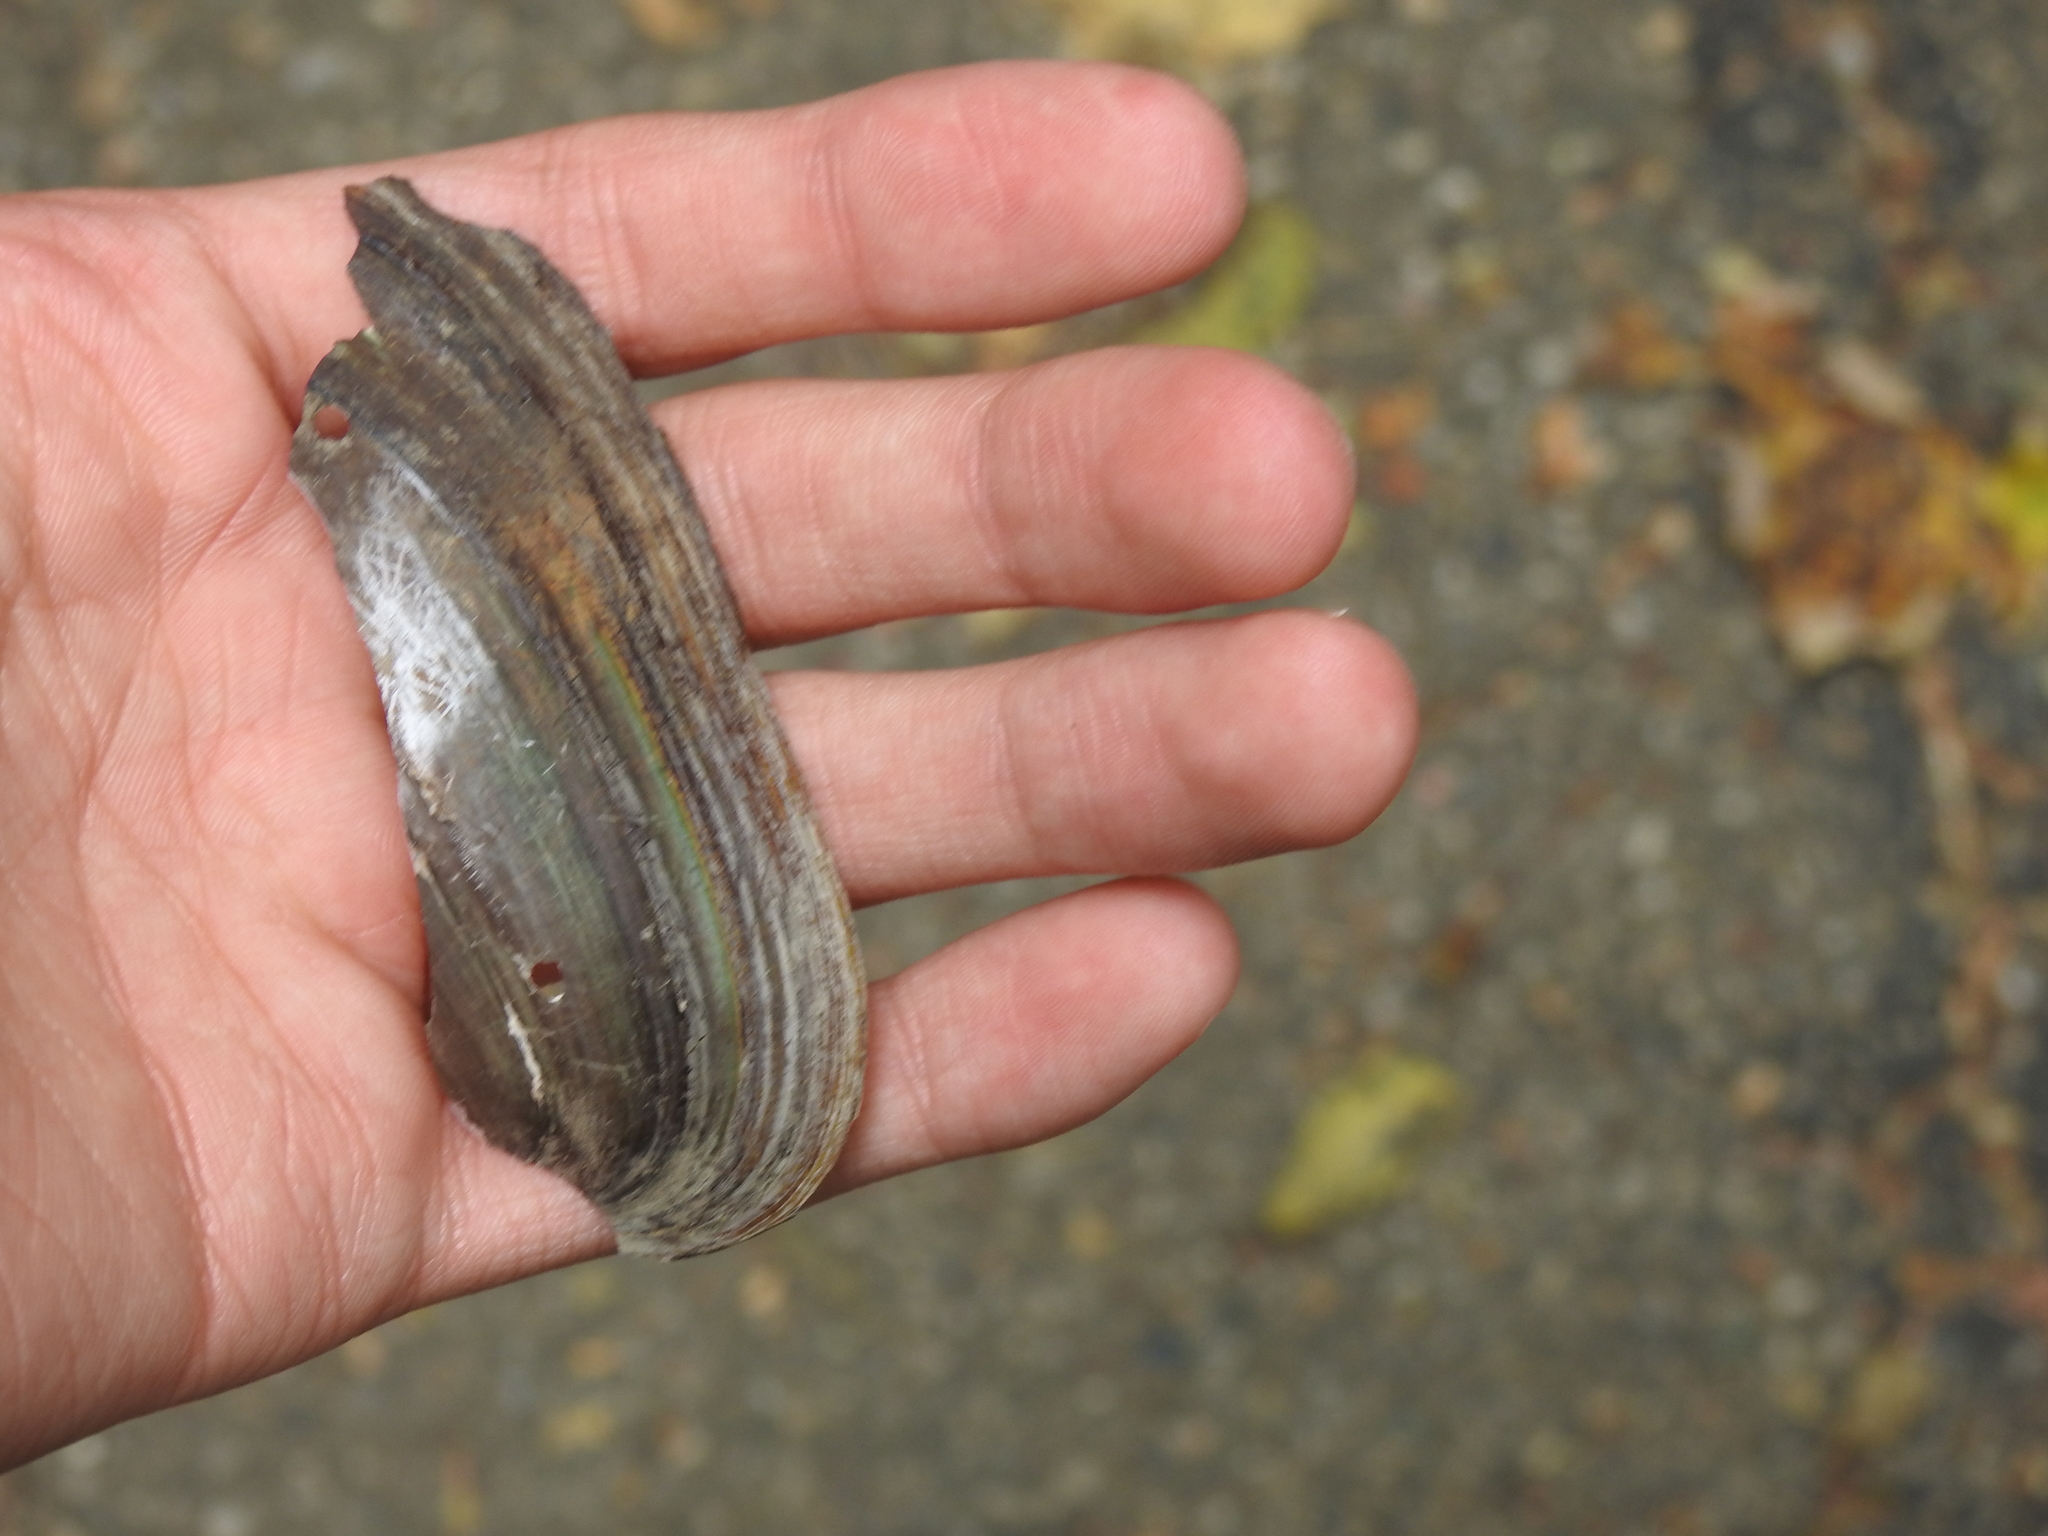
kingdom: Animalia
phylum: Mollusca
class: Bivalvia
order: Unionida
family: Unionidae
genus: Utterbackia
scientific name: Utterbackia imbecillis
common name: Paper pondshell
